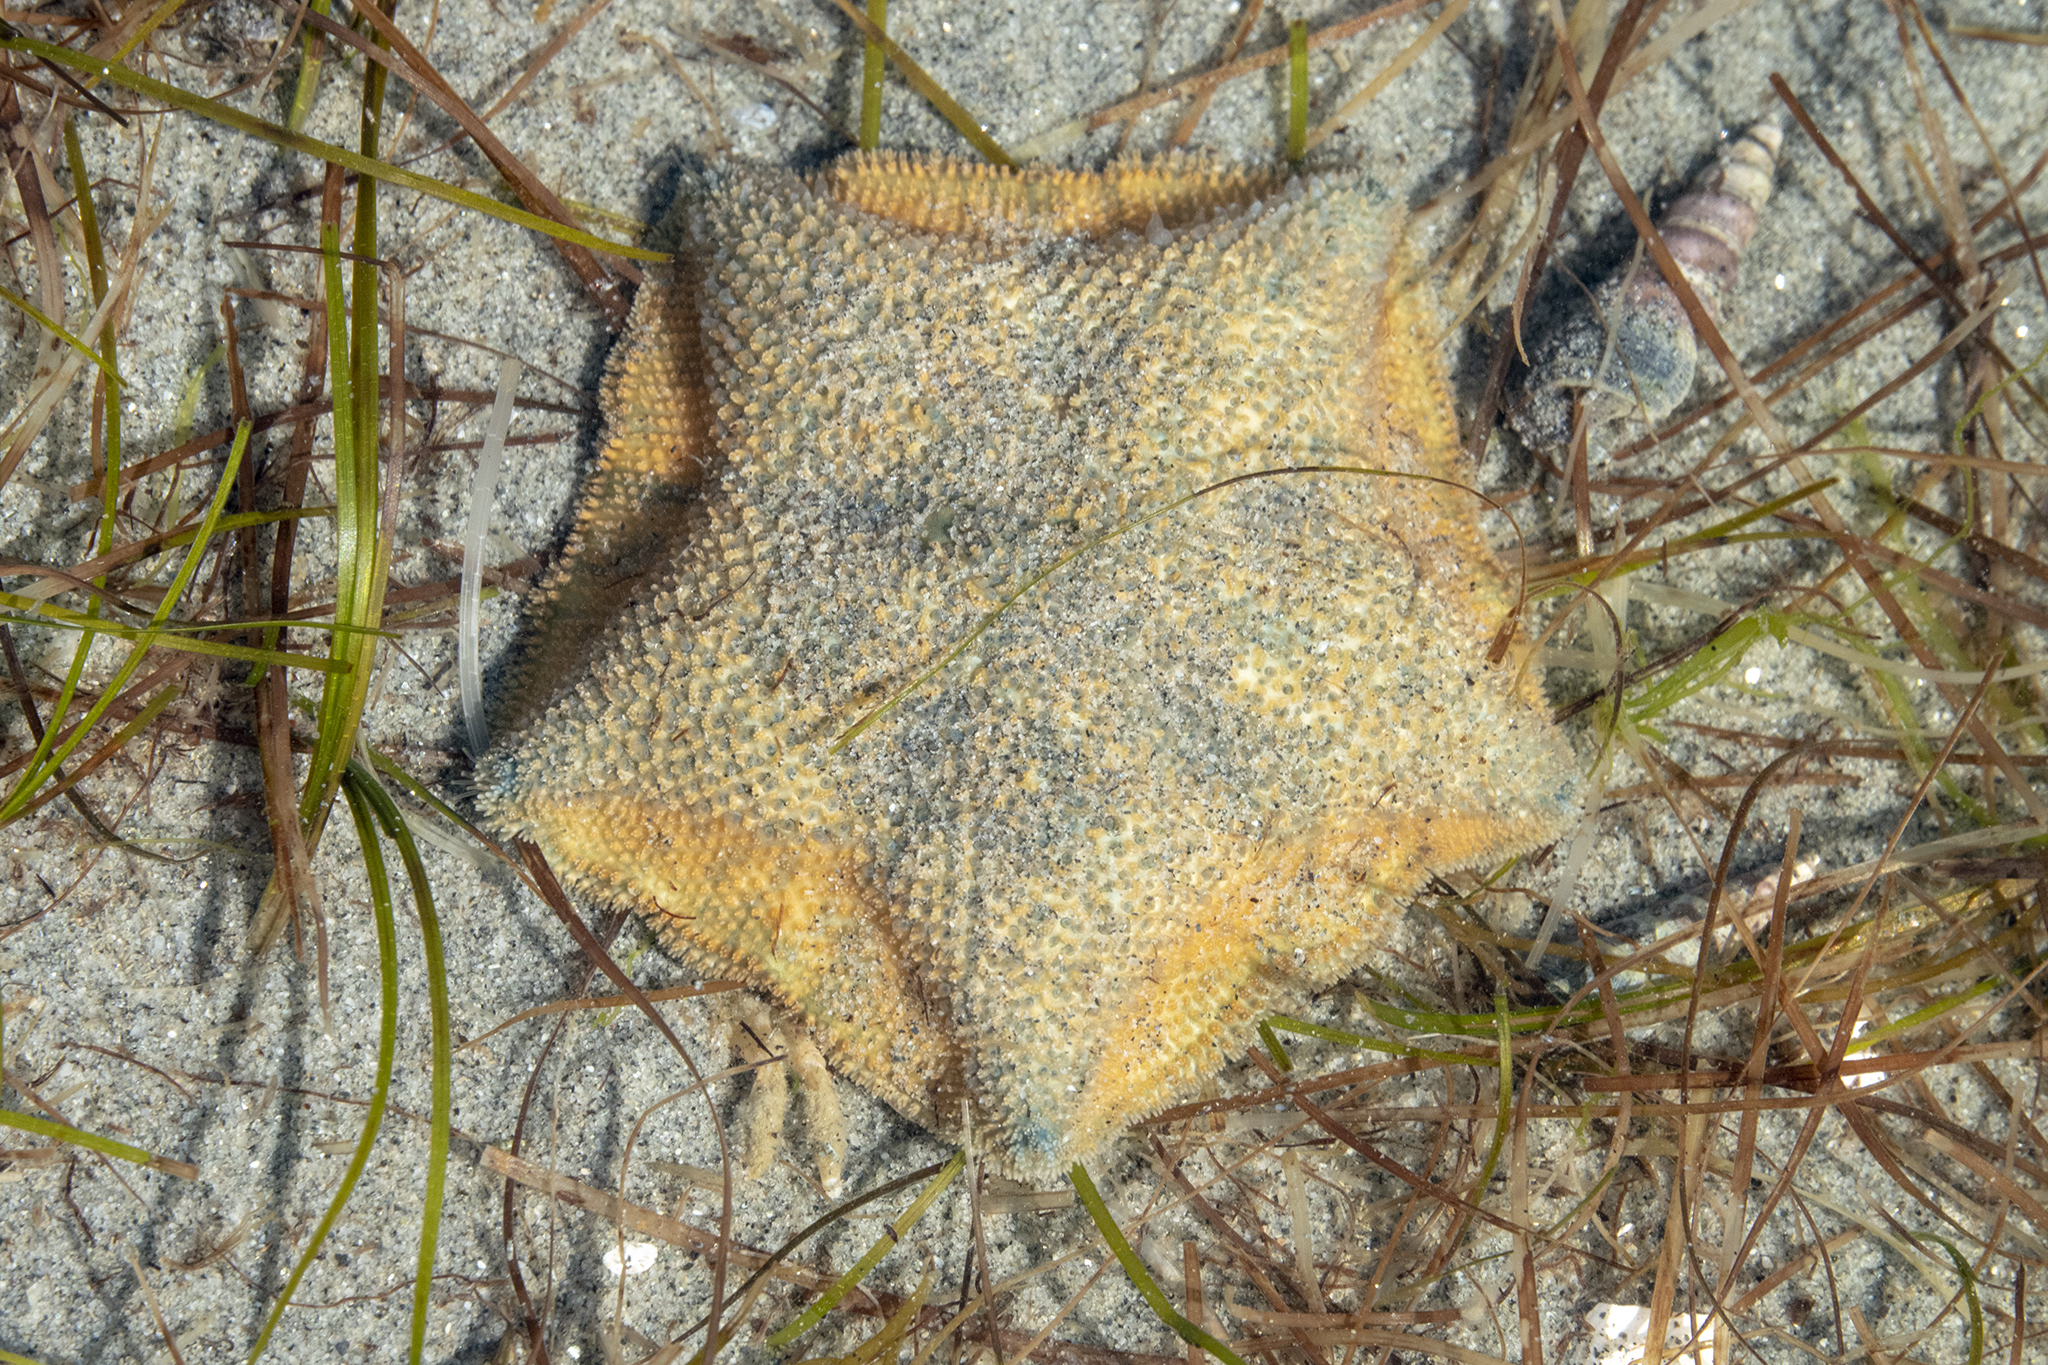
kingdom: Animalia
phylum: Echinodermata
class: Asteroidea
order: Valvatida
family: Asterinidae
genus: Patiriella
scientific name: Patiriella regularis
